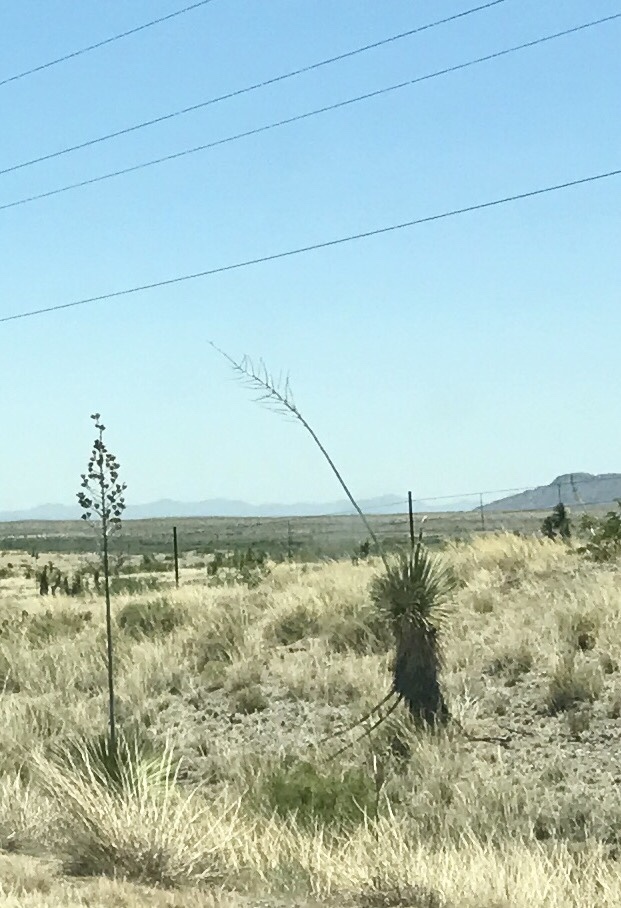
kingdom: Plantae
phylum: Tracheophyta
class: Liliopsida
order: Asparagales
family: Asparagaceae
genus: Yucca
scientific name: Yucca elata
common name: Palmella
